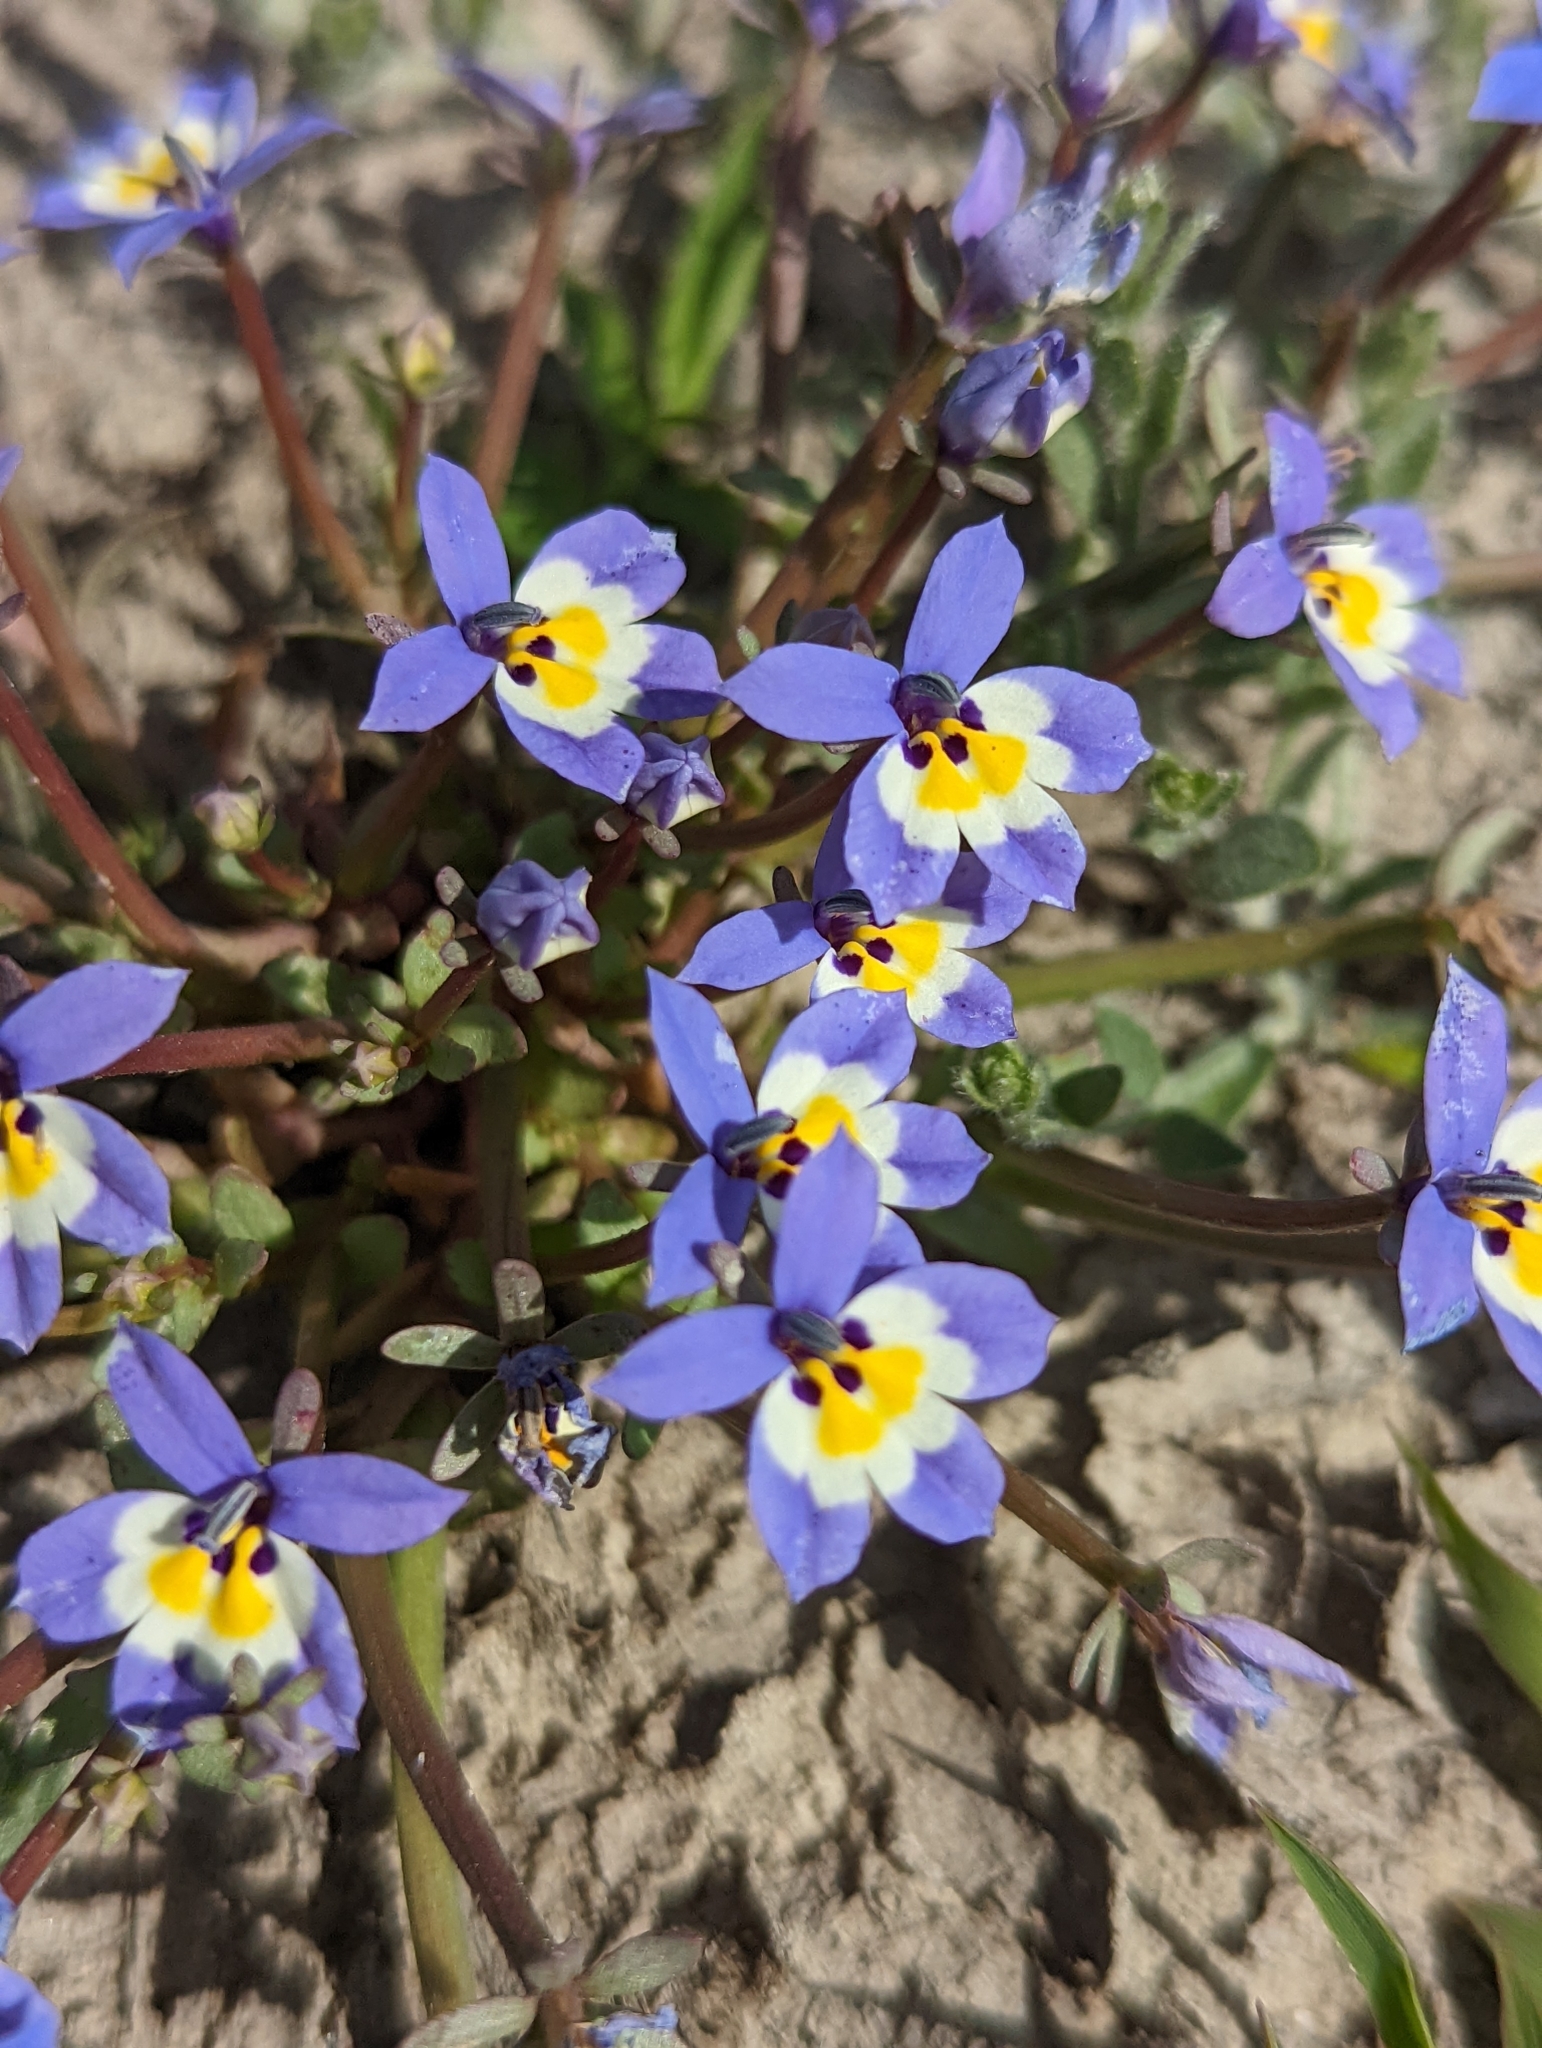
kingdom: Plantae
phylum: Tracheophyta
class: Magnoliopsida
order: Asterales
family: Campanulaceae
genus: Downingia
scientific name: Downingia pulchella
